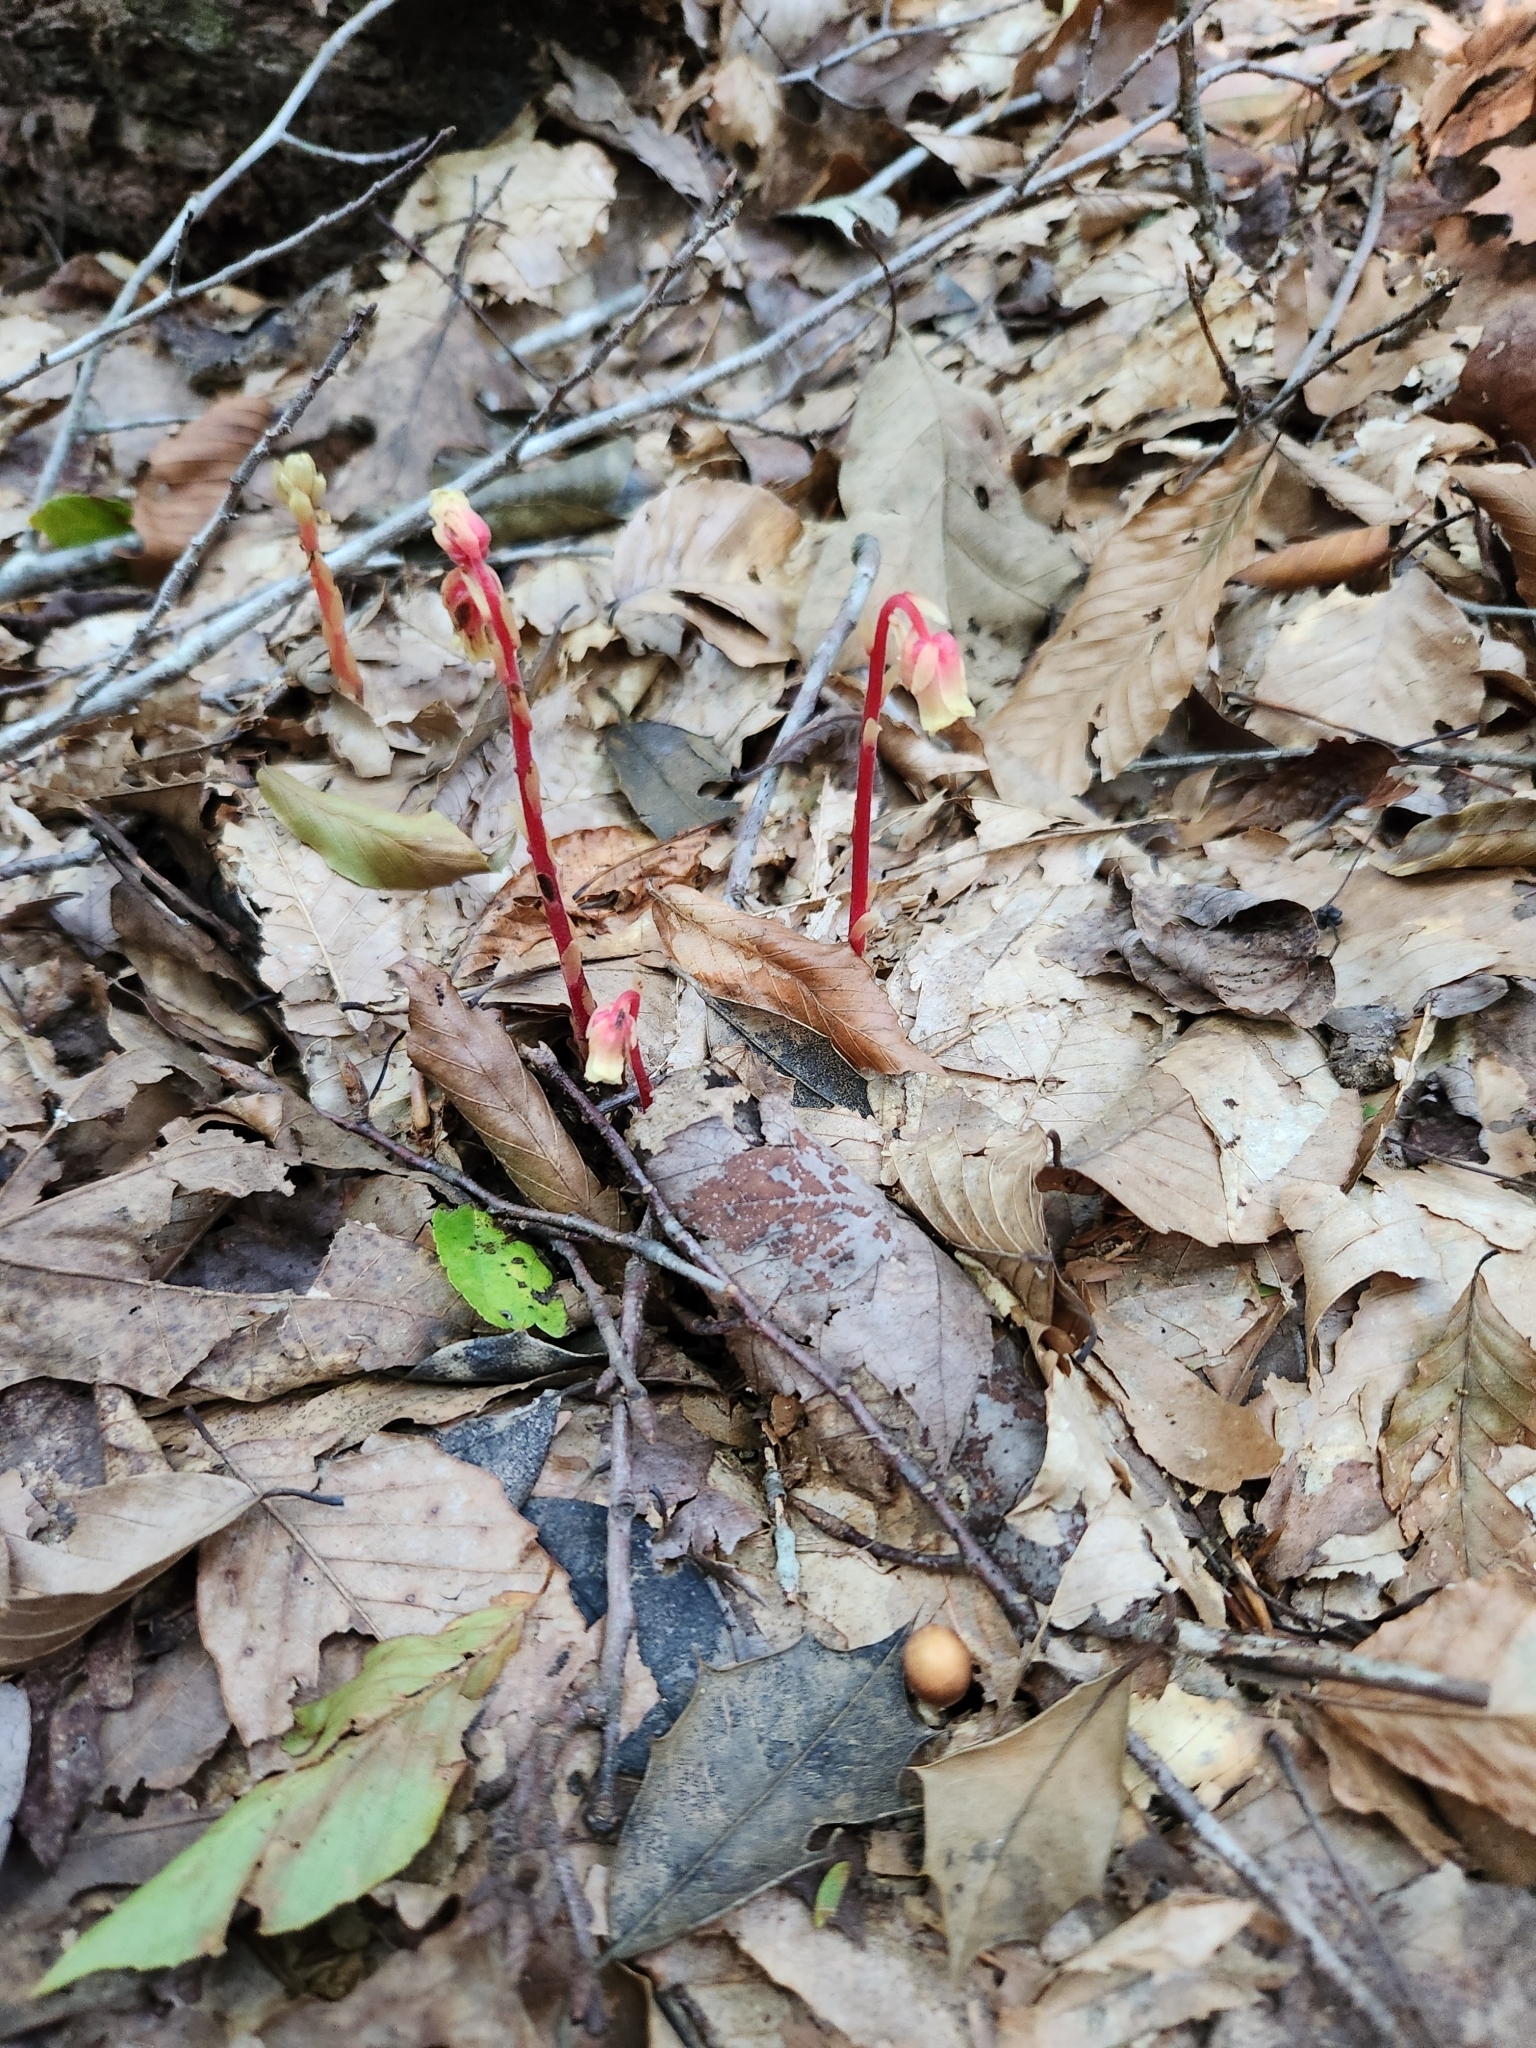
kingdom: Plantae
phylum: Tracheophyta
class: Magnoliopsida
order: Ericales
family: Ericaceae
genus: Hypopitys
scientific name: Hypopitys monotropa
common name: Yellow bird's-nest
